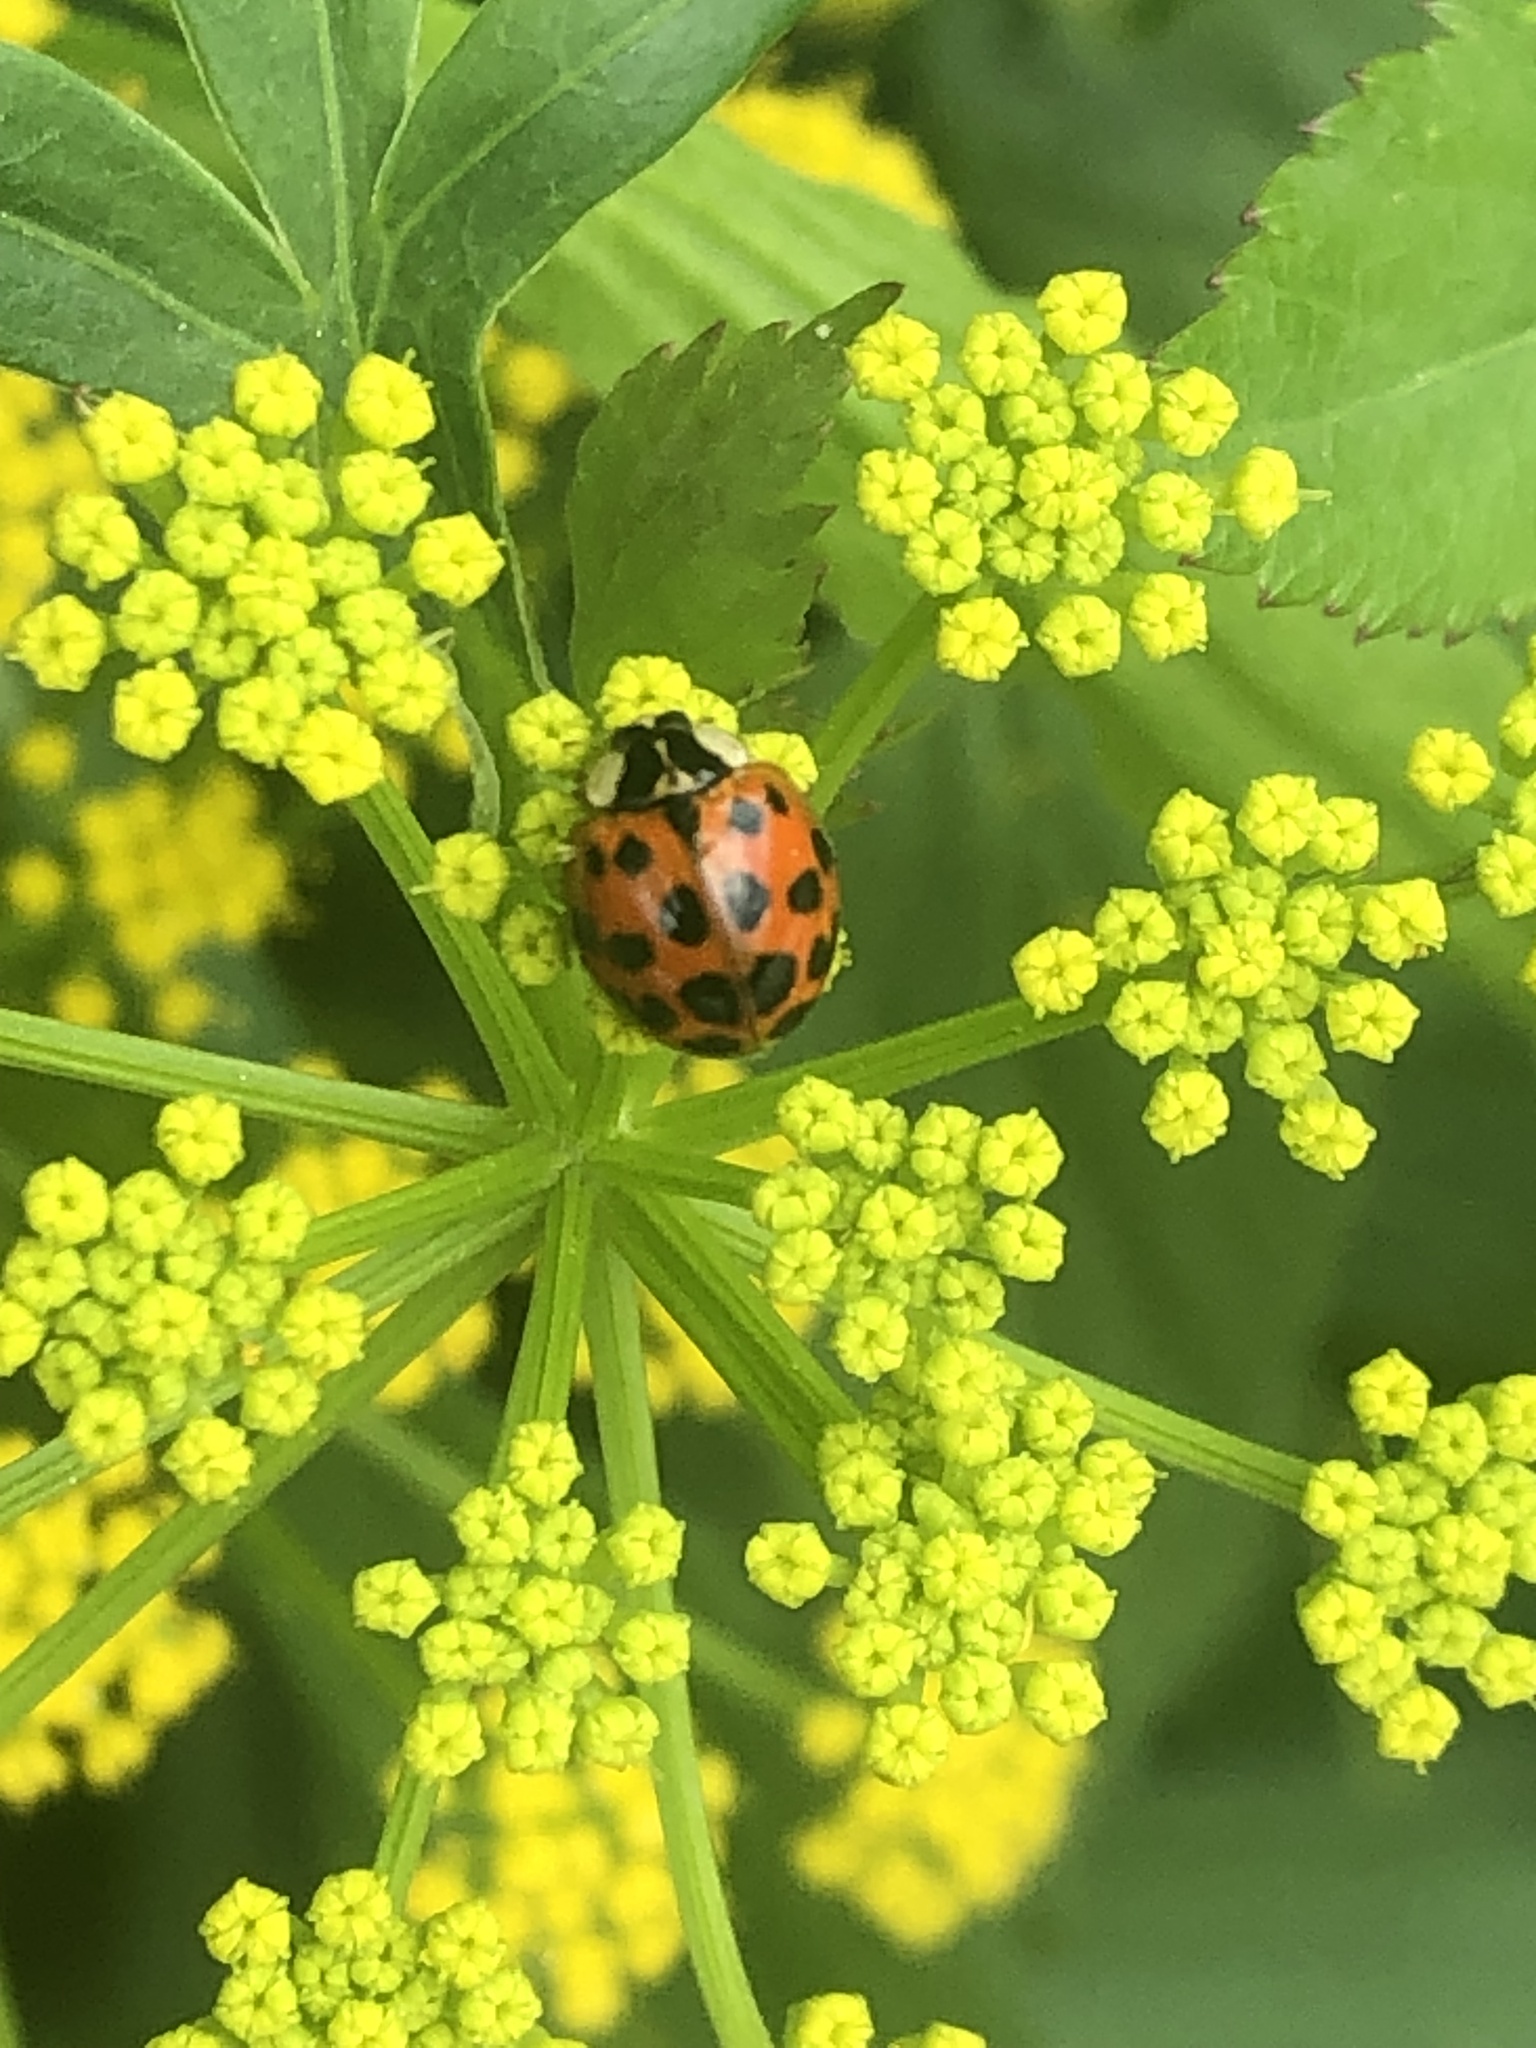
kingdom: Animalia
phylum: Arthropoda
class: Insecta
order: Coleoptera
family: Coccinellidae
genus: Harmonia
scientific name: Harmonia axyridis
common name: Harlequin ladybird
